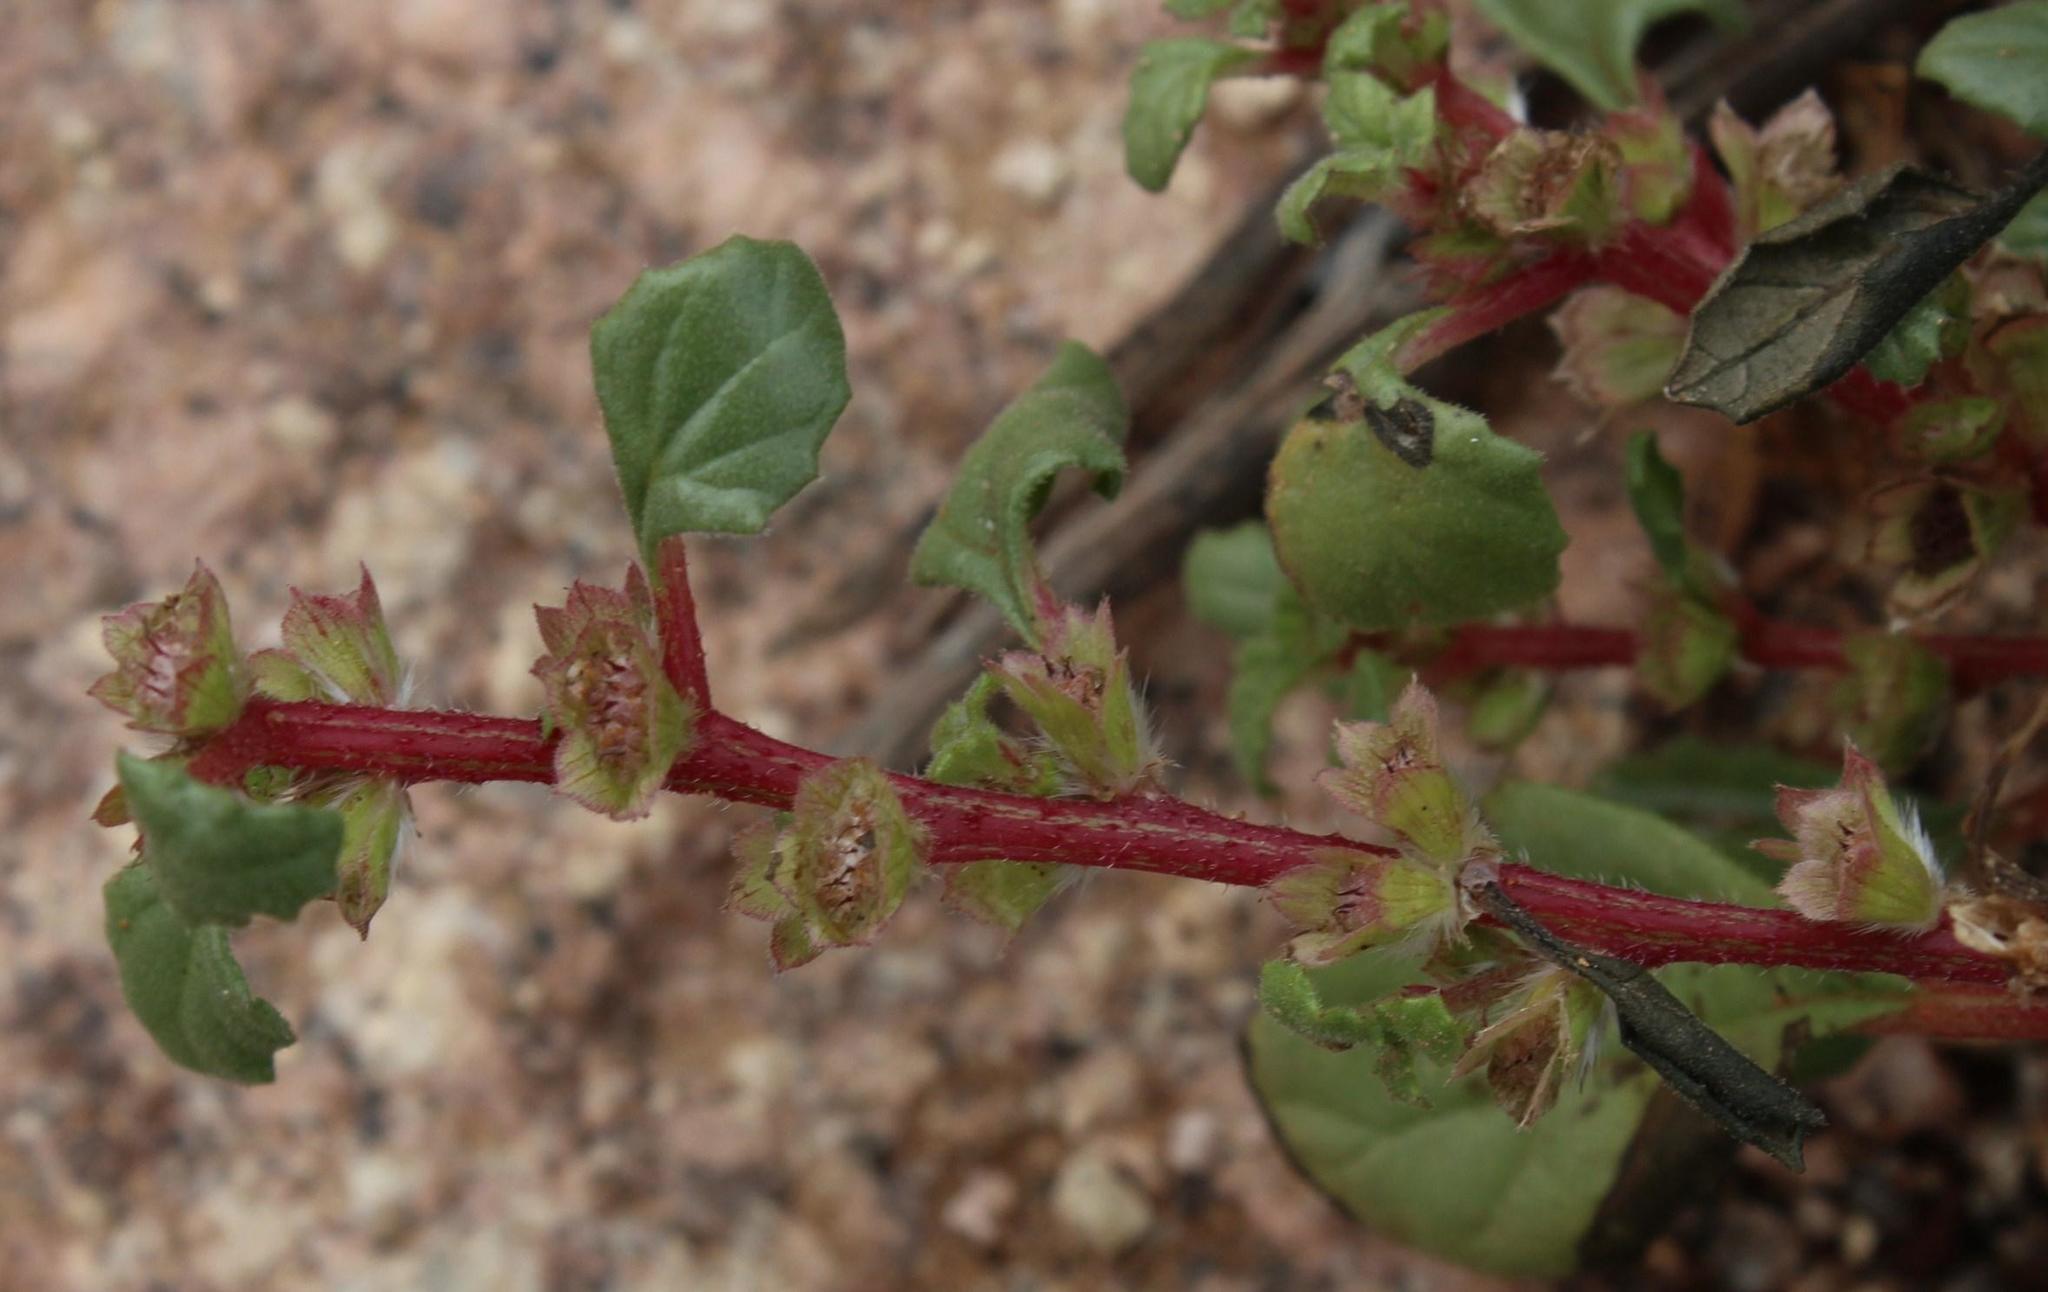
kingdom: Plantae
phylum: Tracheophyta
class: Magnoliopsida
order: Rosales
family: Urticaceae
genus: Forsskaolea
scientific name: Forsskaolea candida
